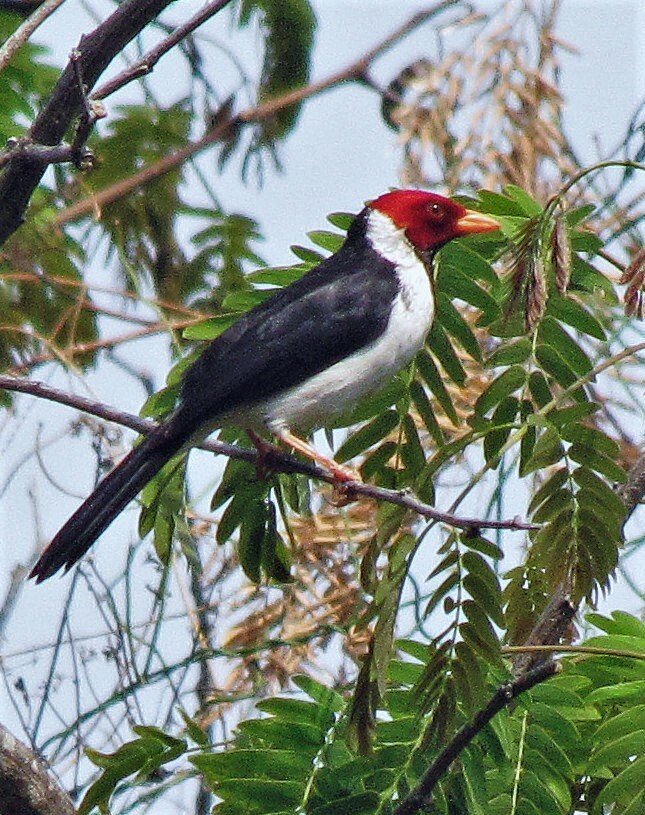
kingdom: Animalia
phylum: Chordata
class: Aves
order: Passeriformes
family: Thraupidae
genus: Paroaria
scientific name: Paroaria capitata
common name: Yellow-billed cardinal
